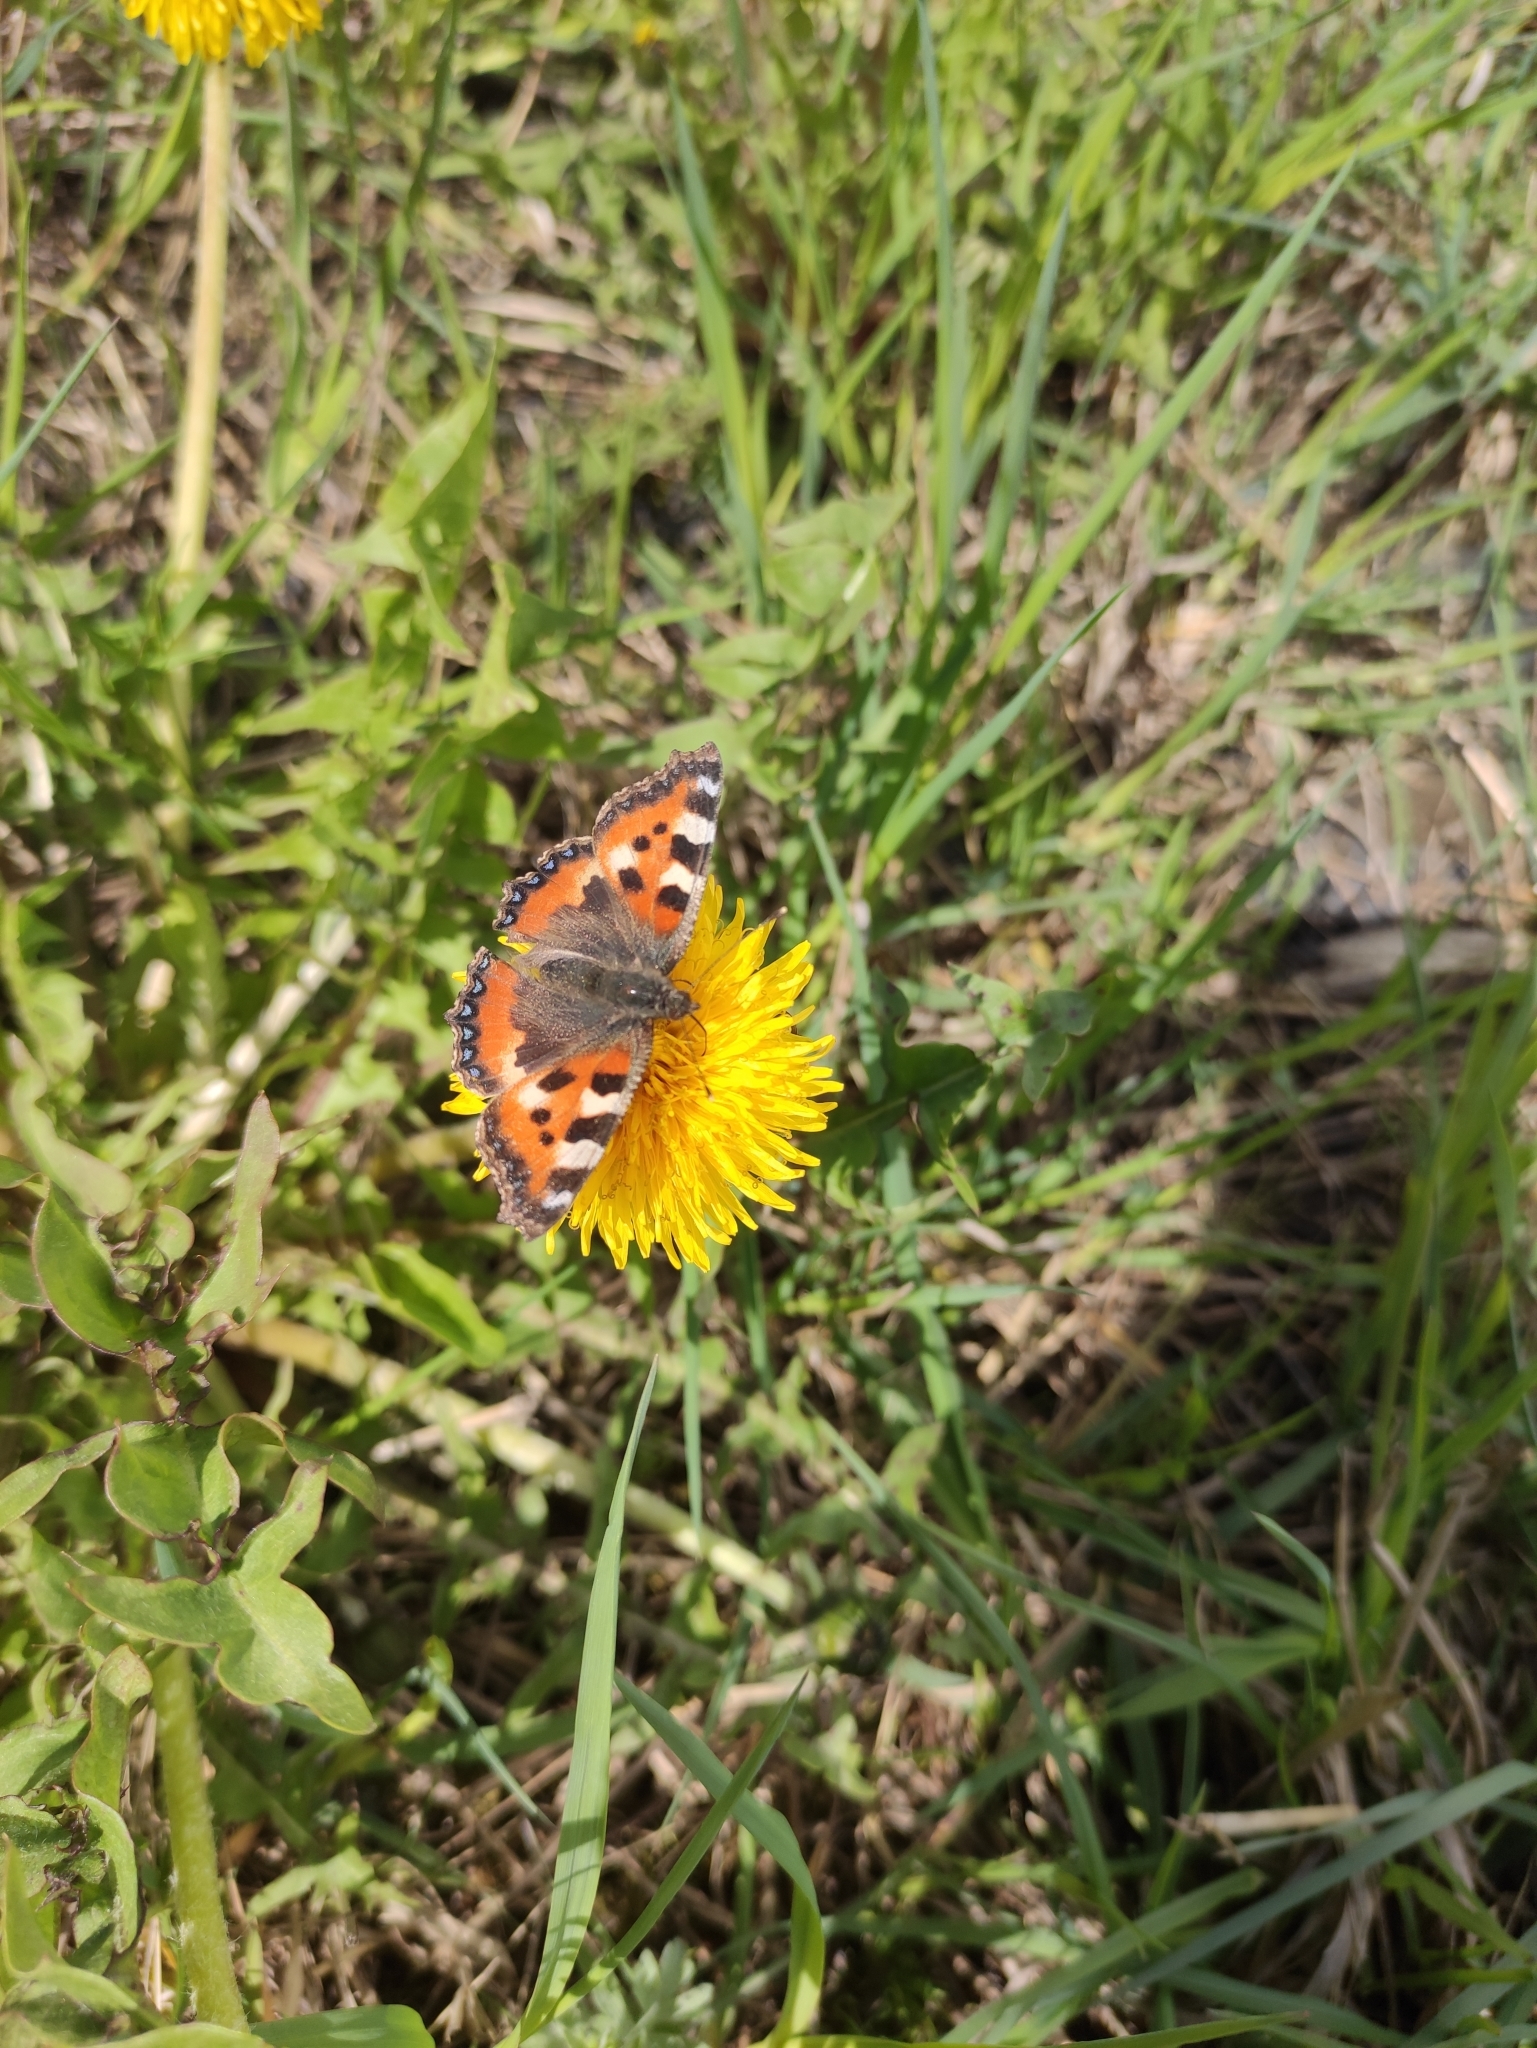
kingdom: Animalia
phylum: Arthropoda
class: Insecta
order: Lepidoptera
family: Nymphalidae
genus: Aglais
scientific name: Aglais urticae
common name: Small tortoiseshell
